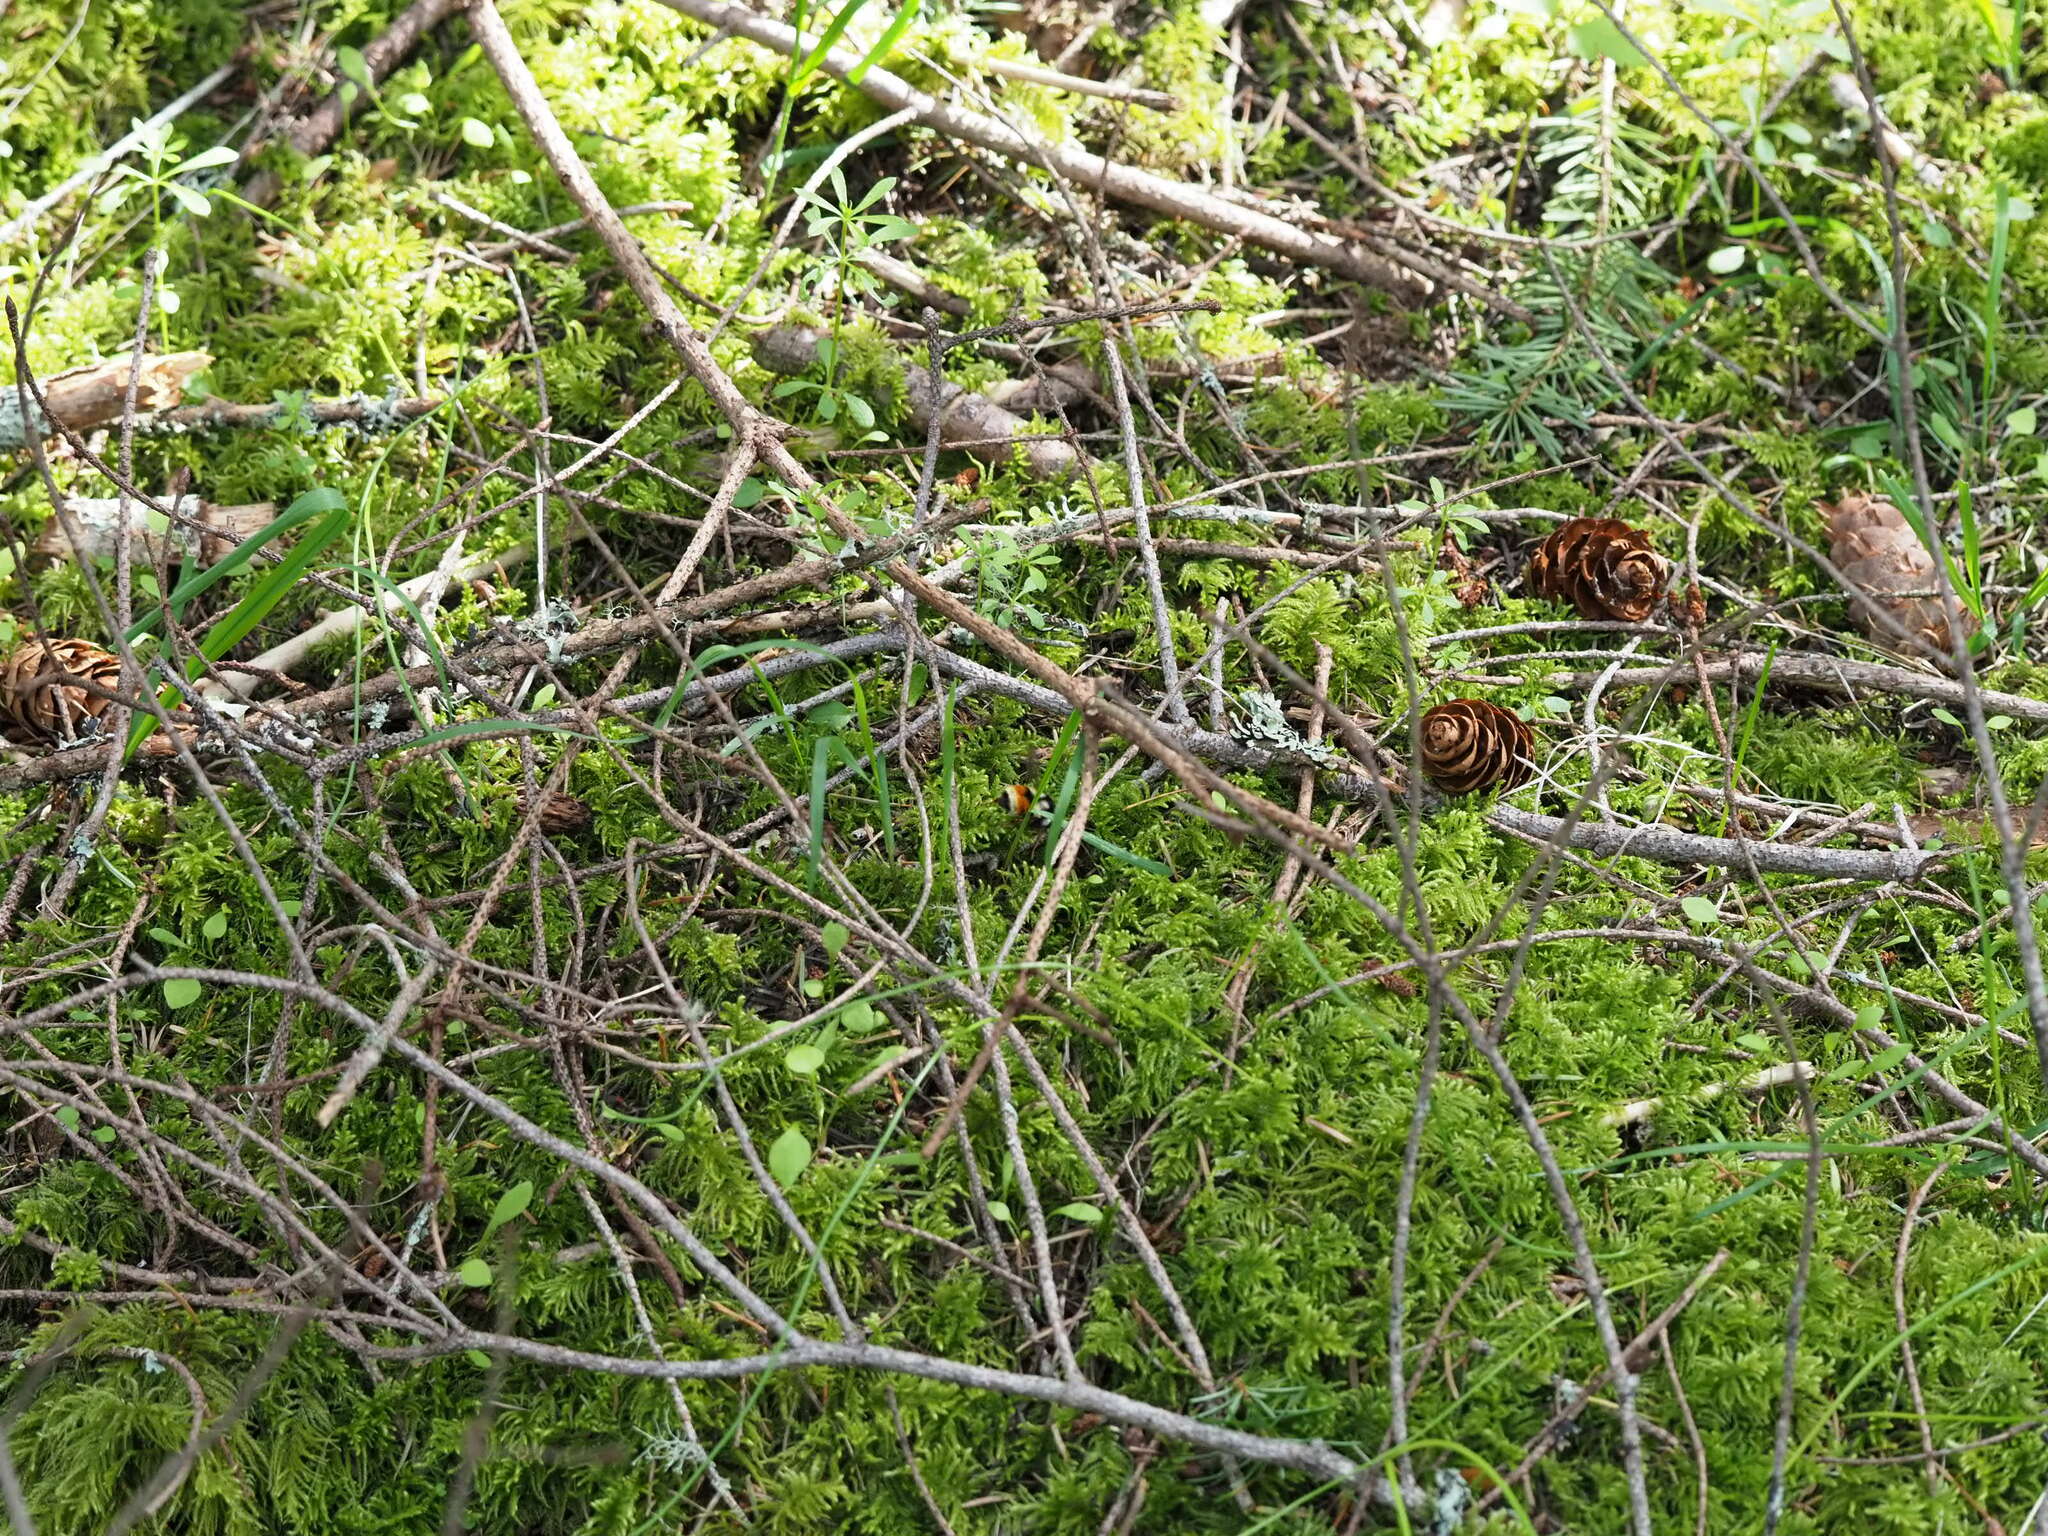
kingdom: Animalia
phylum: Arthropoda
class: Insecta
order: Hymenoptera
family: Apidae
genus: Bombus
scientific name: Bombus vancouverensis
